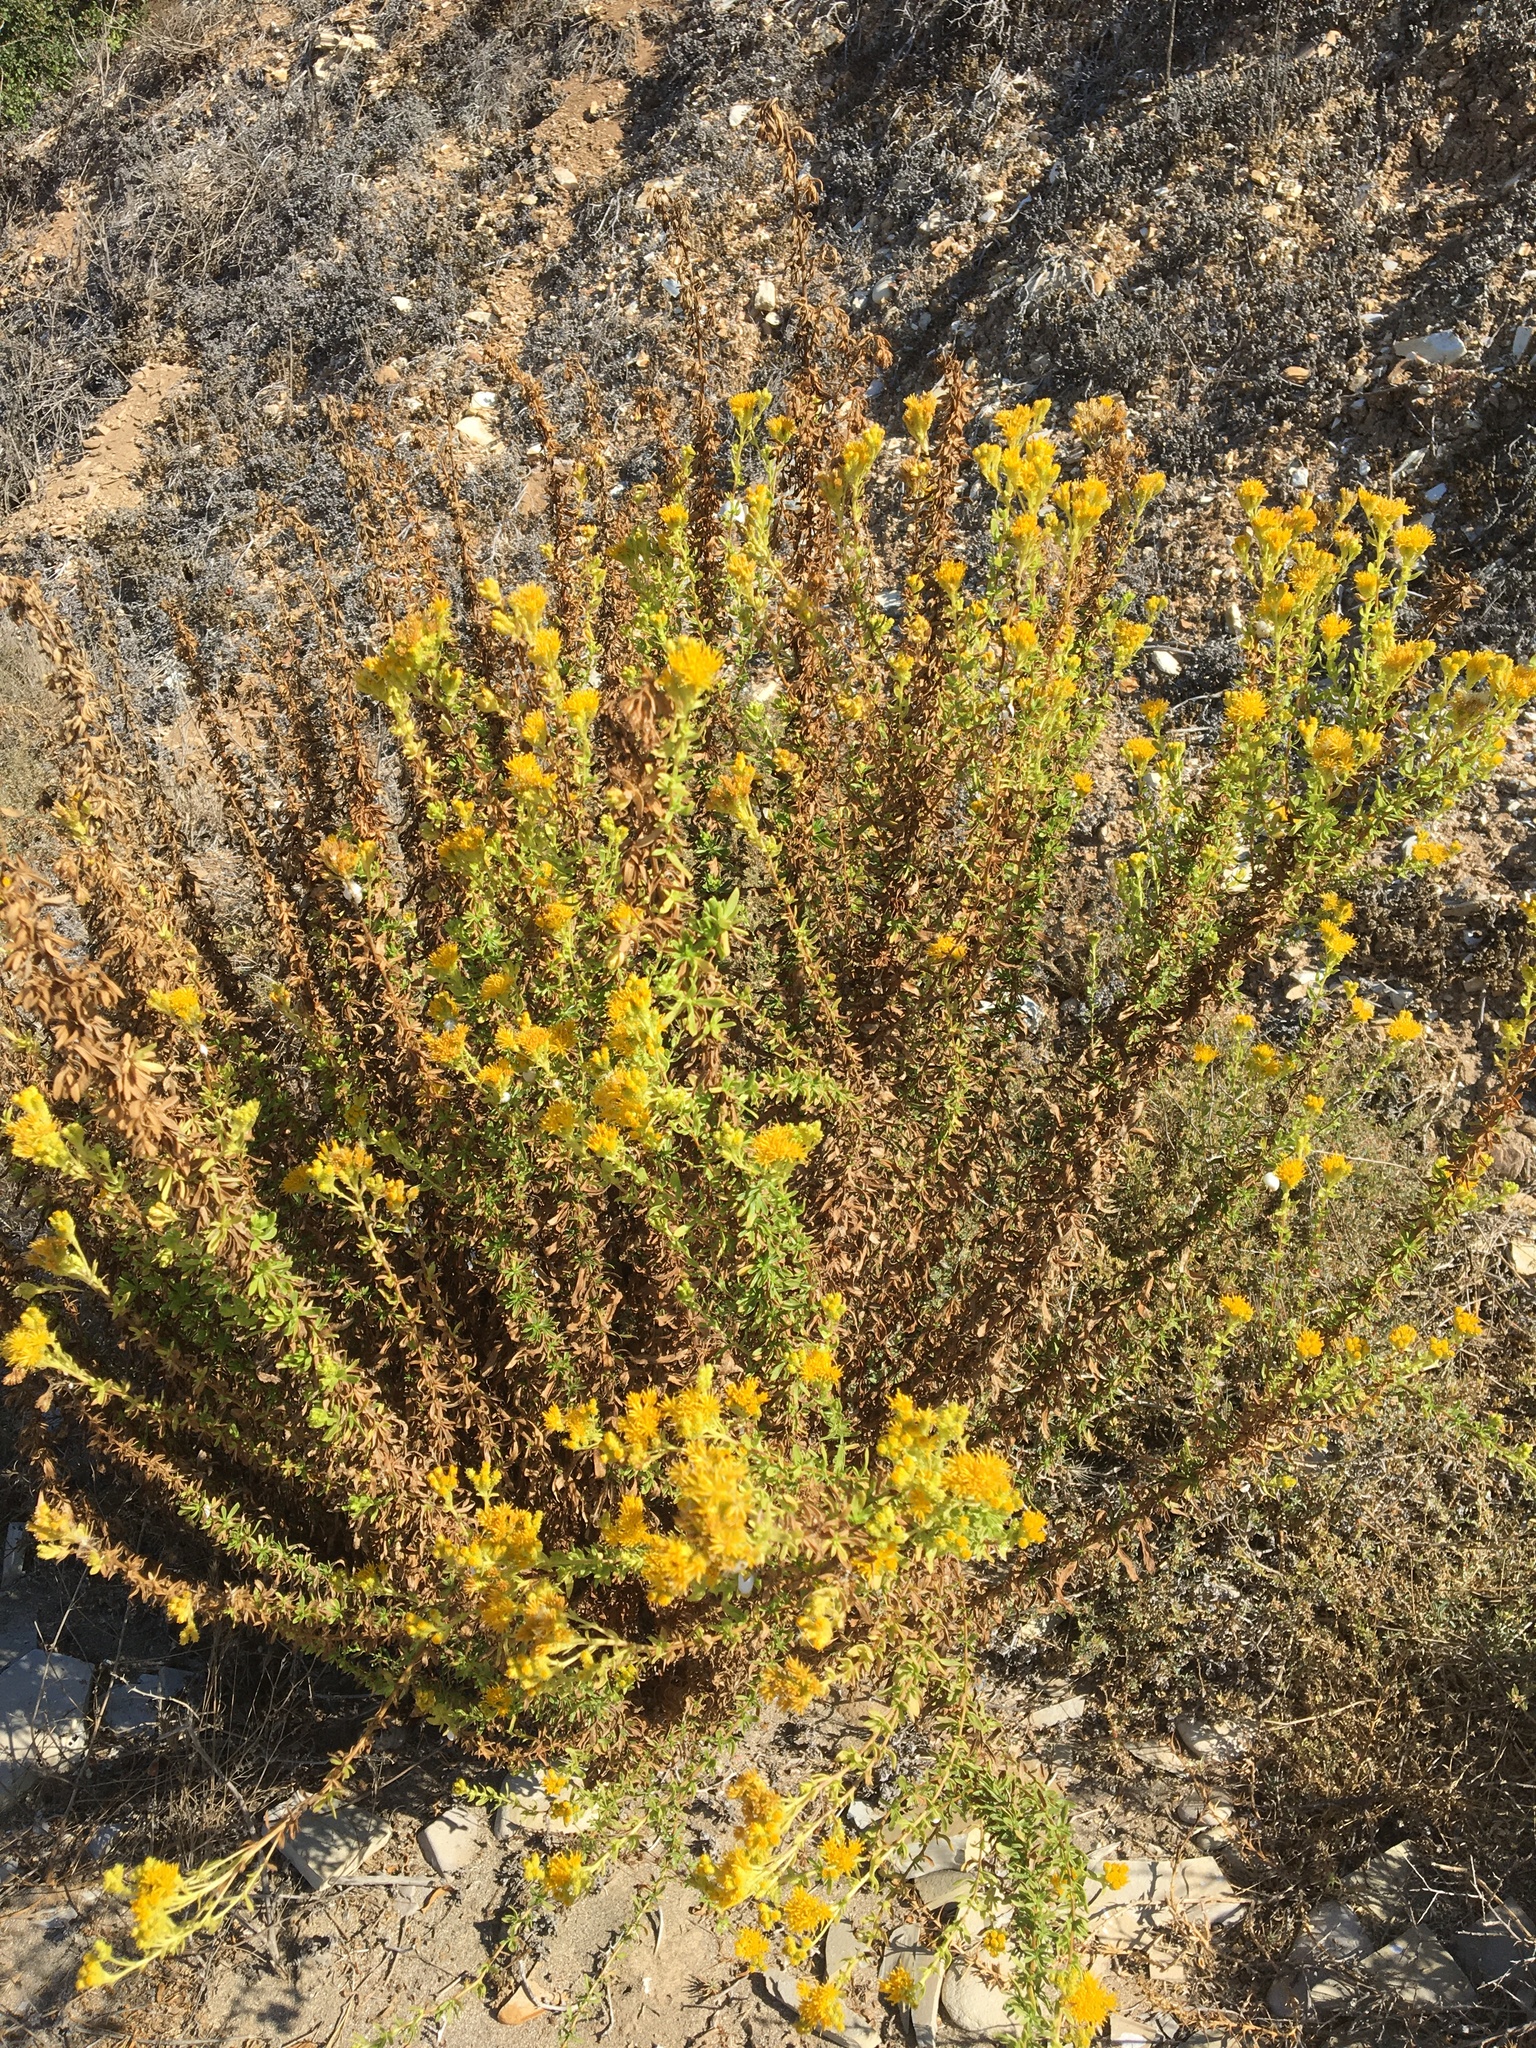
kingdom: Plantae
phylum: Tracheophyta
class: Magnoliopsida
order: Asterales
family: Asteraceae
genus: Isocoma
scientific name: Isocoma menziesii
